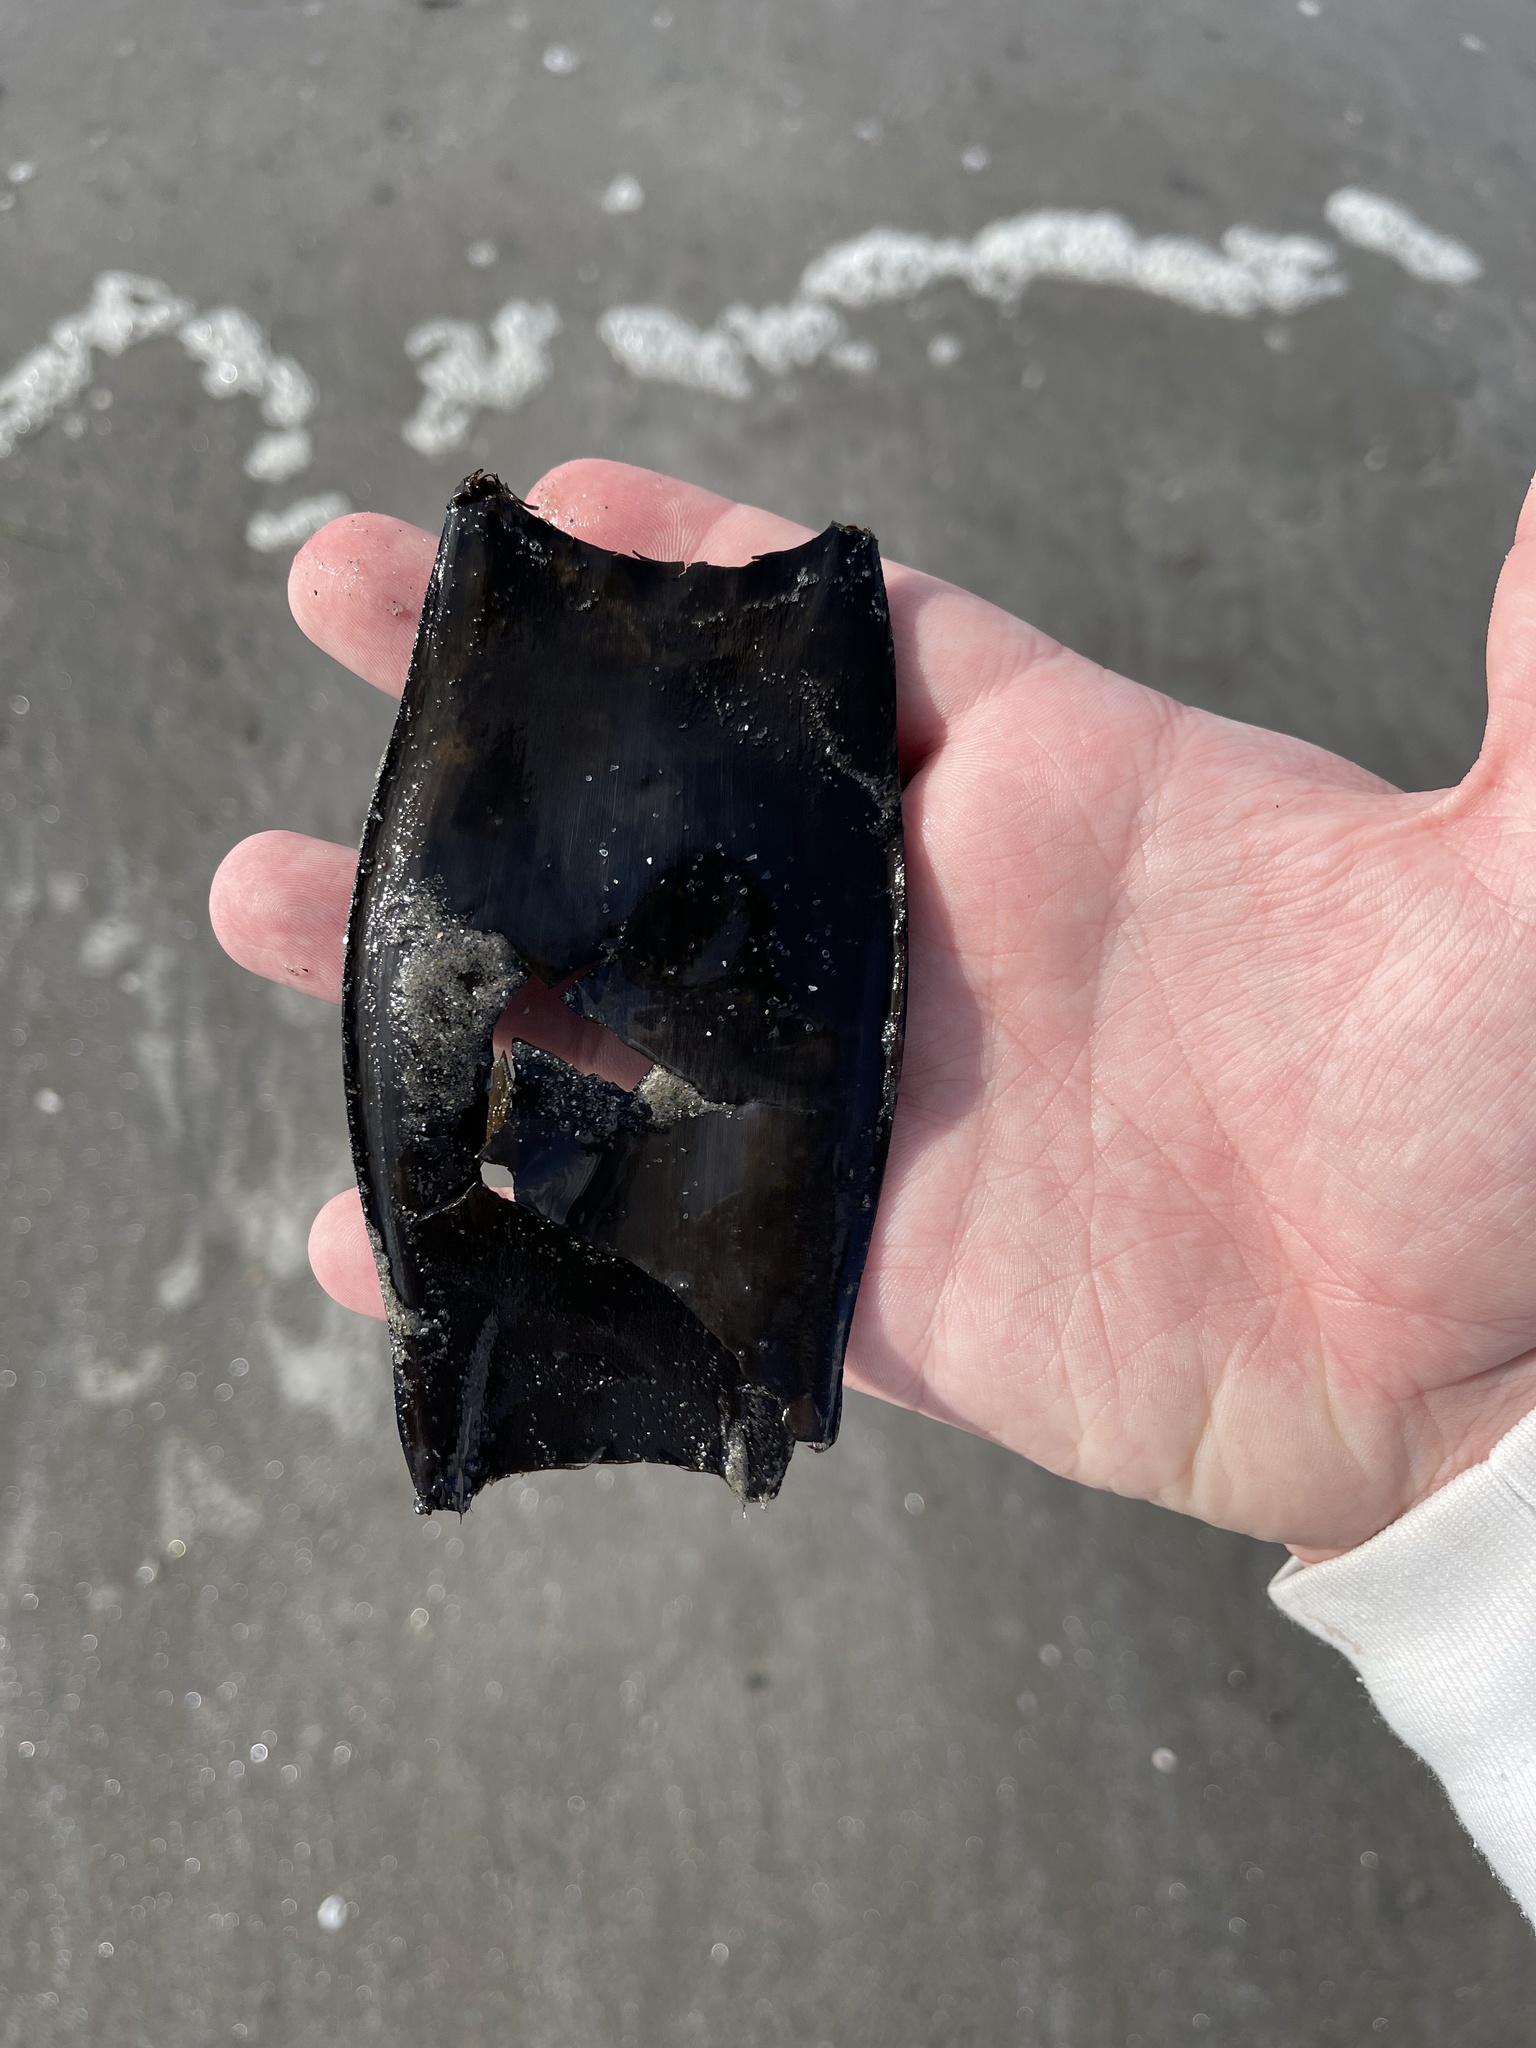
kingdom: Animalia
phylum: Chordata
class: Elasmobranchii
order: Rajiformes
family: Rajidae
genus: Raja
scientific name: Raja eglanteria
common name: Clearnose skate
